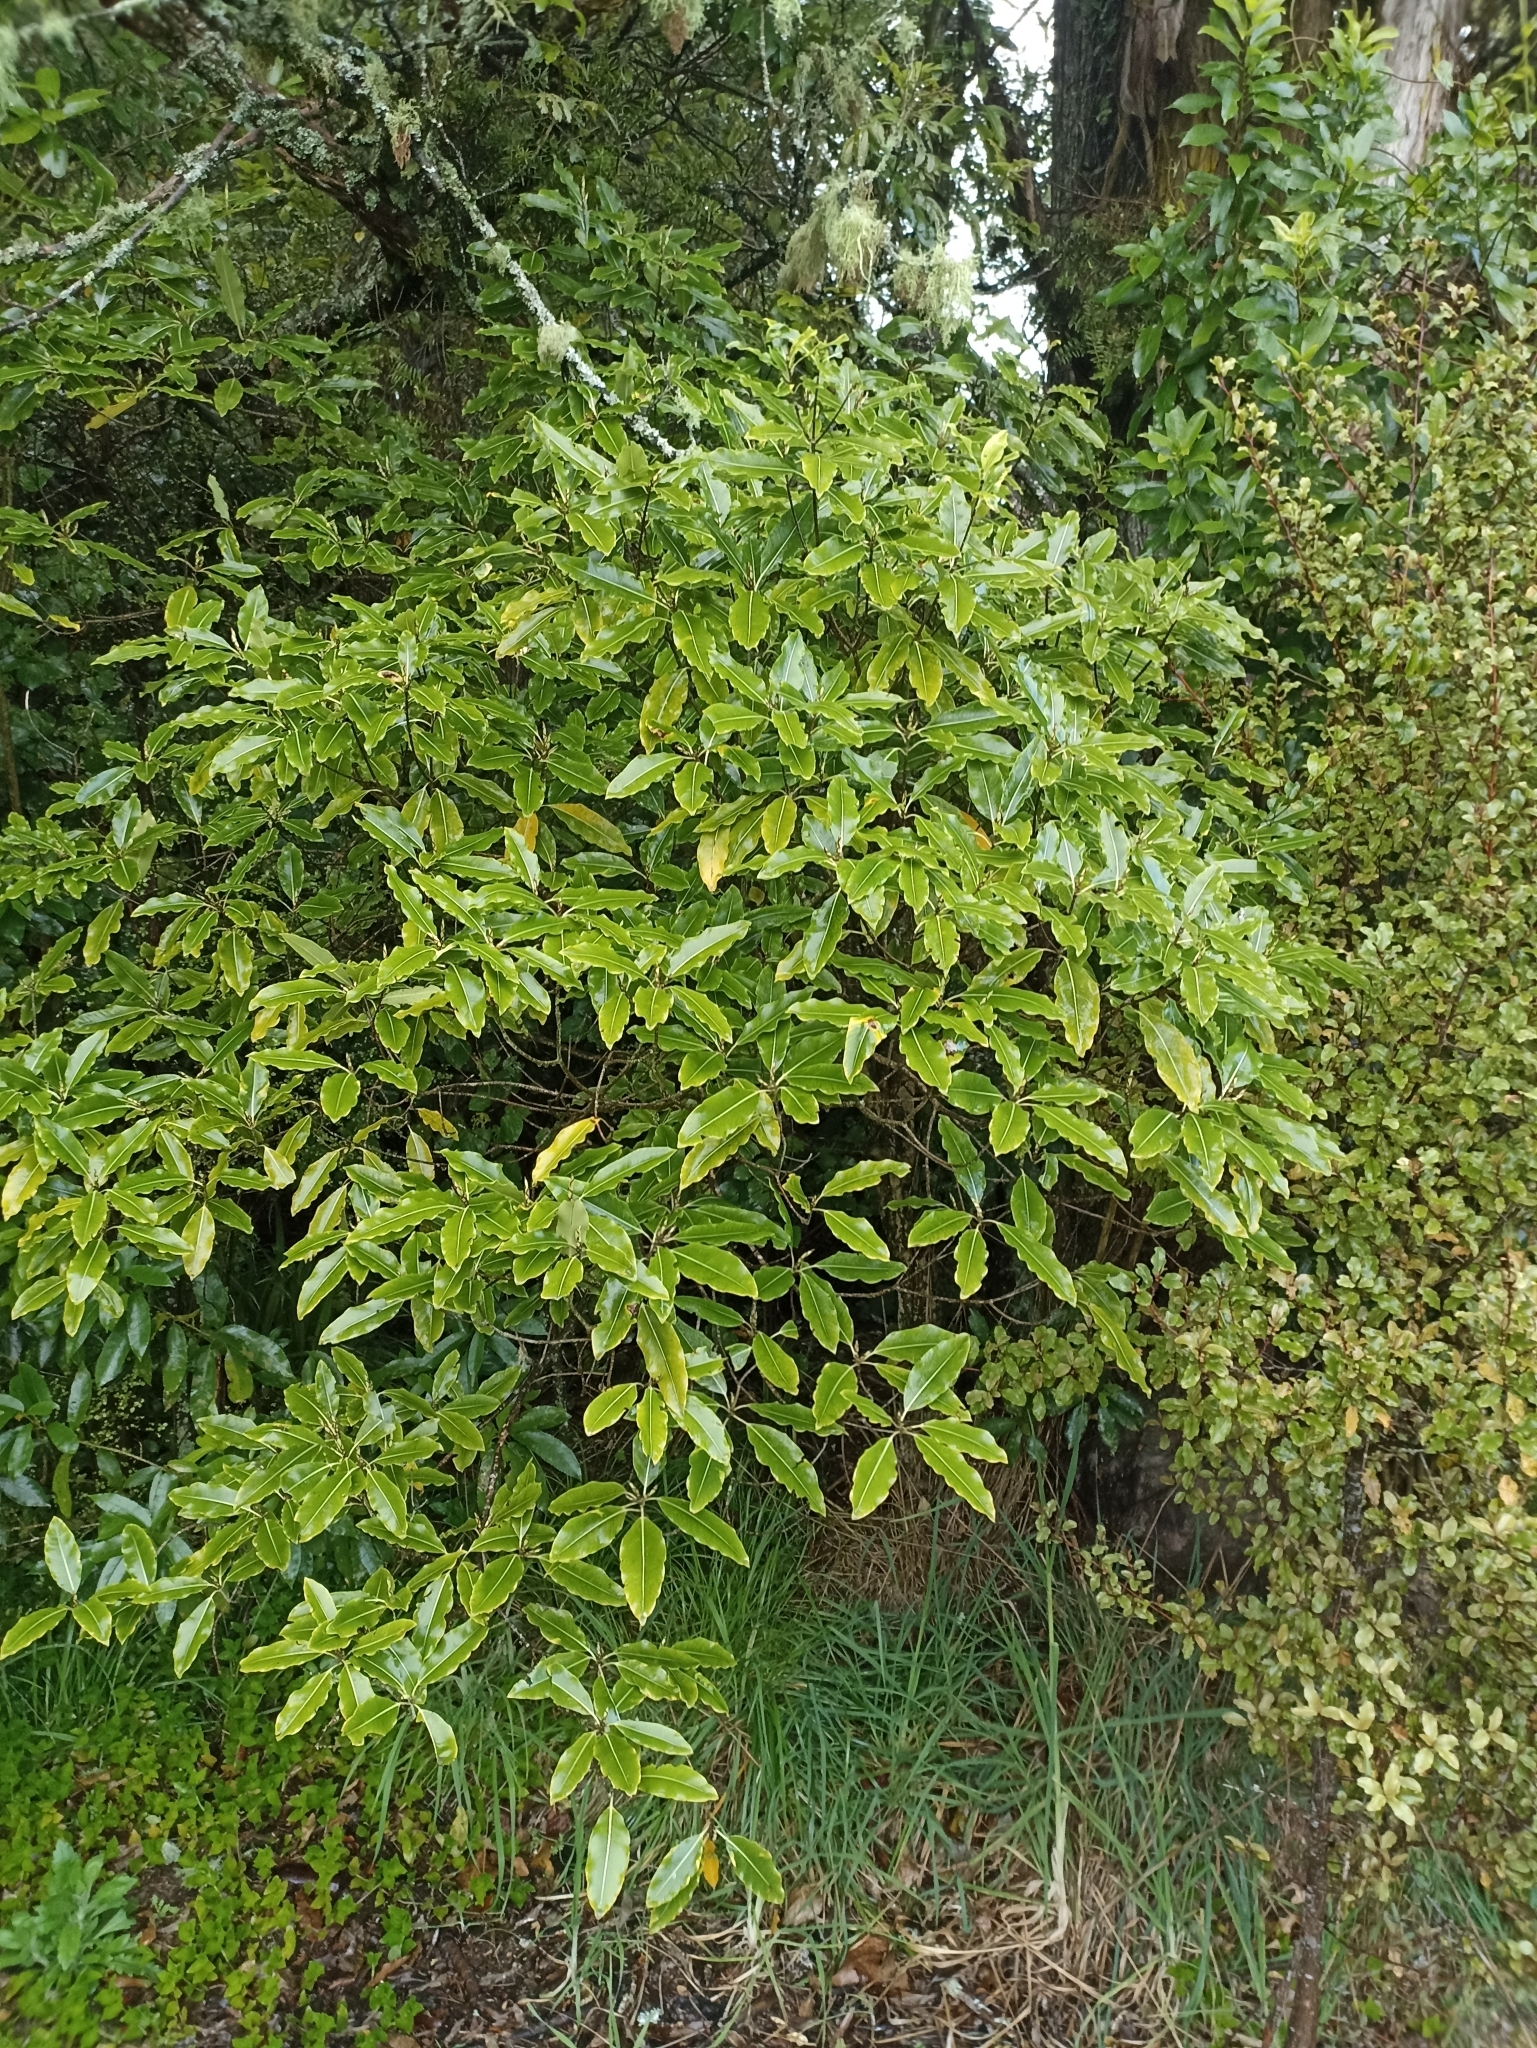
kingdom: Plantae
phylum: Tracheophyta
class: Magnoliopsida
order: Apiales
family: Pittosporaceae
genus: Pittosporum
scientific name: Pittosporum eugenioides
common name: Lemonwood
